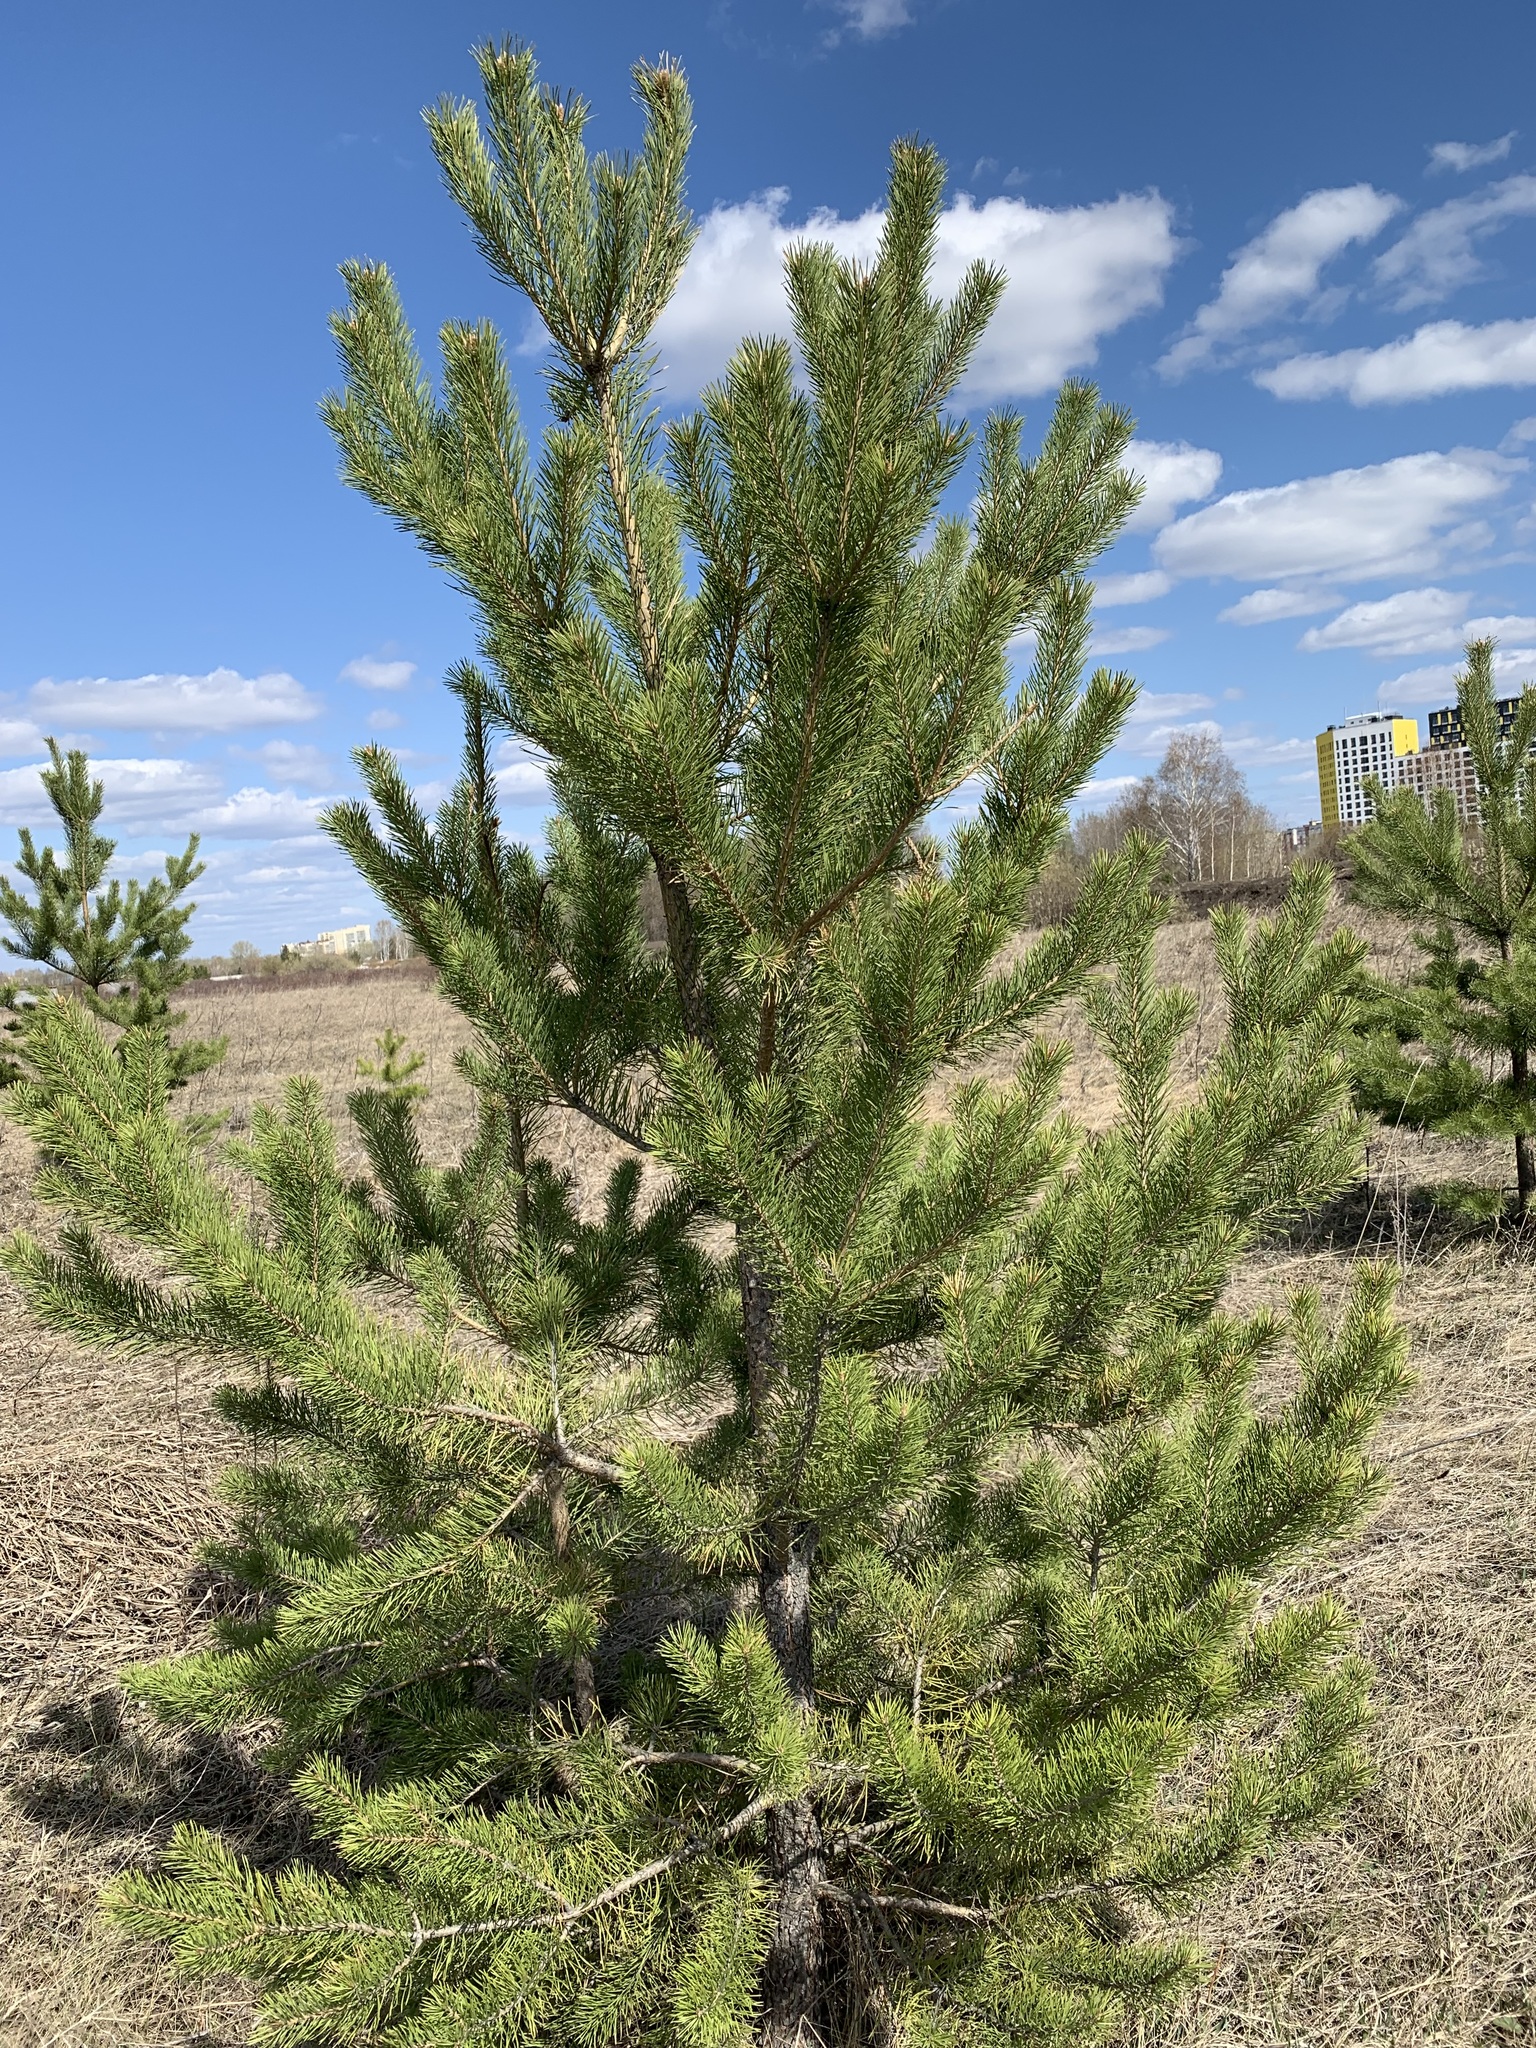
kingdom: Plantae
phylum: Tracheophyta
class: Pinopsida
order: Pinales
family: Pinaceae
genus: Pinus
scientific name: Pinus sylvestris
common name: Scots pine
